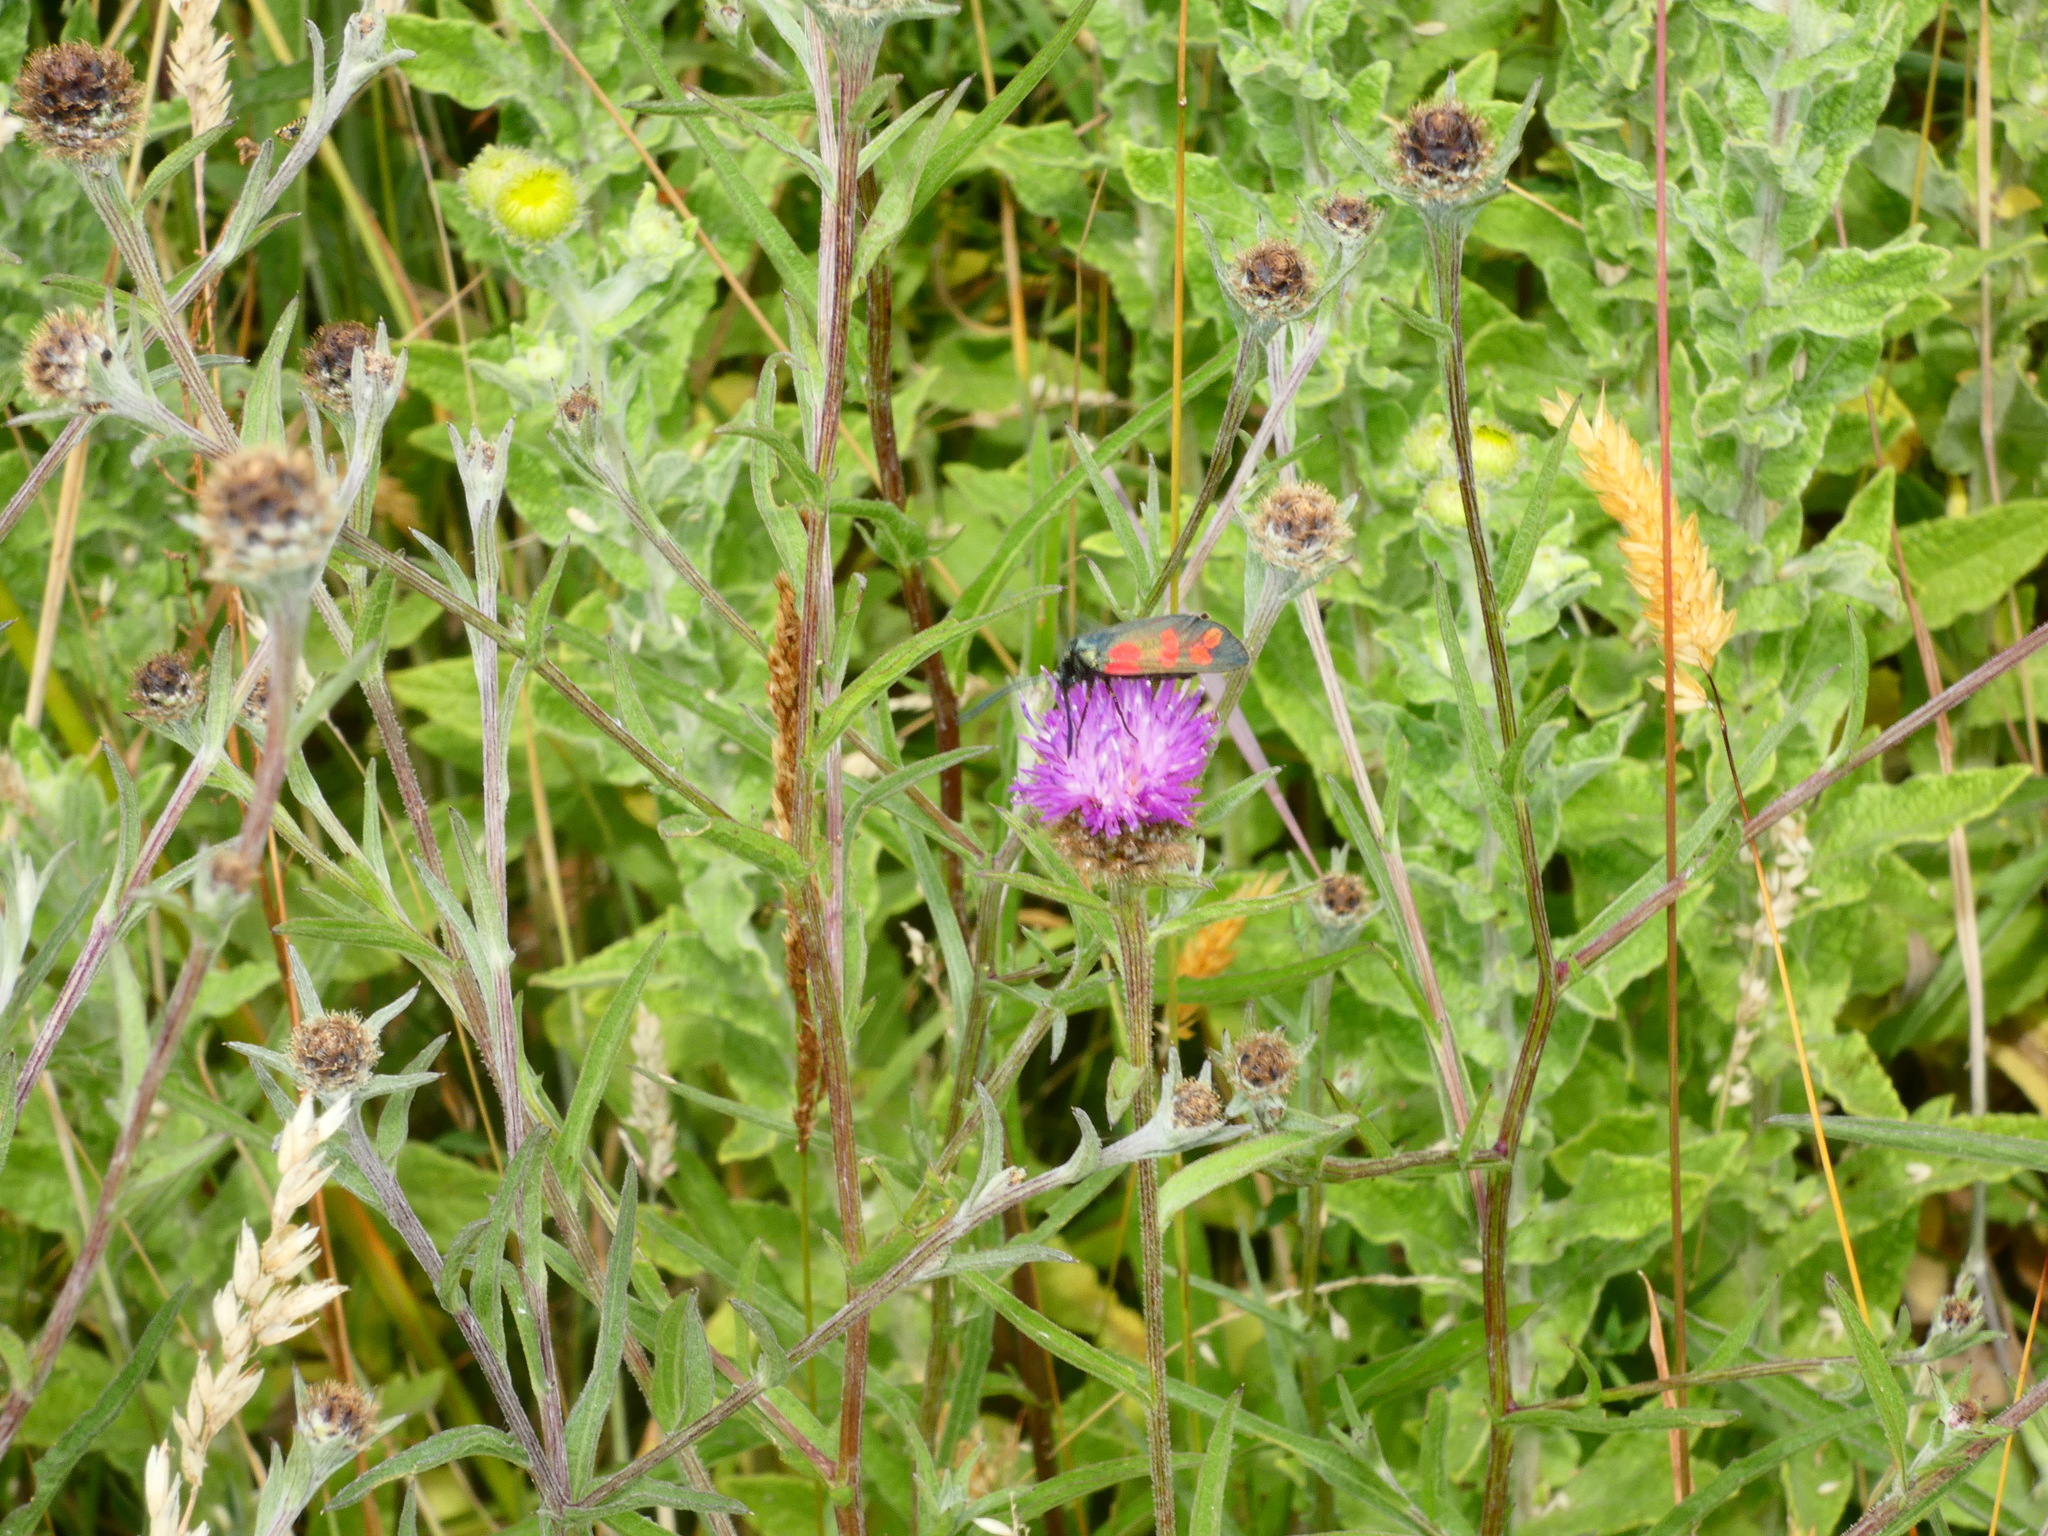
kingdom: Animalia
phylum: Arthropoda
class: Insecta
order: Lepidoptera
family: Zygaenidae
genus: Zygaena
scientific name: Zygaena filipendulae
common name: Six-spot burnet
